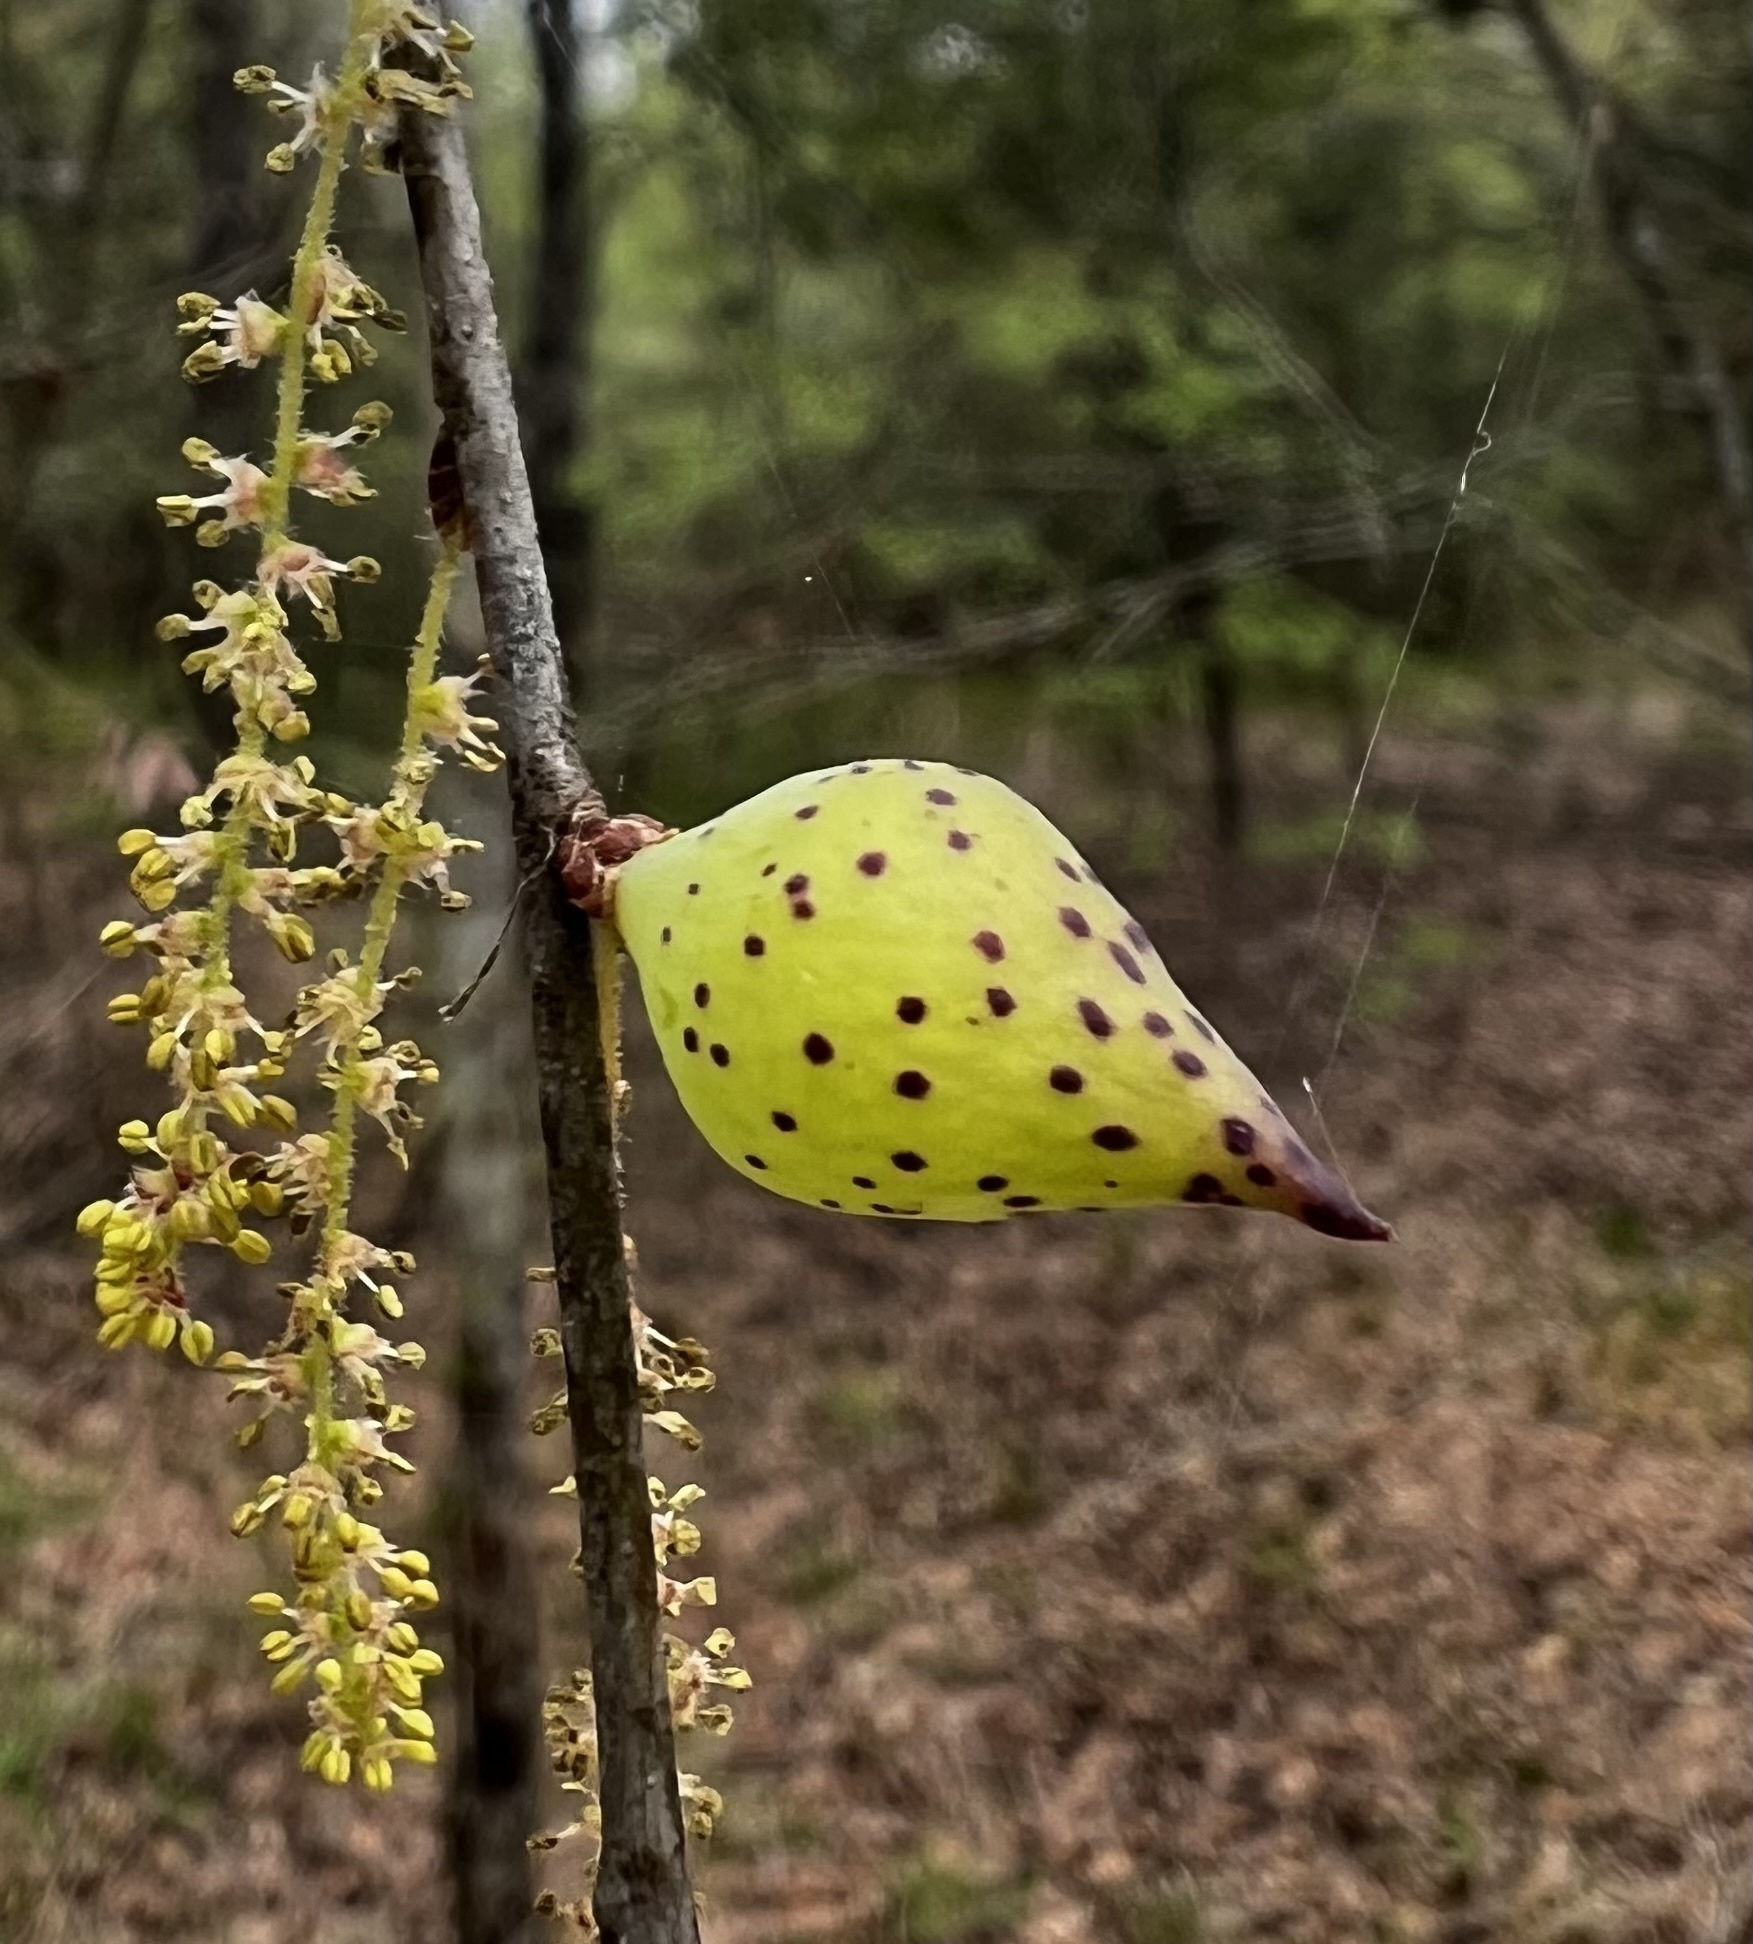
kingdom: Animalia
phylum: Arthropoda
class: Insecta
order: Hymenoptera
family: Cynipidae
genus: Amphibolips
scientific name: Amphibolips
